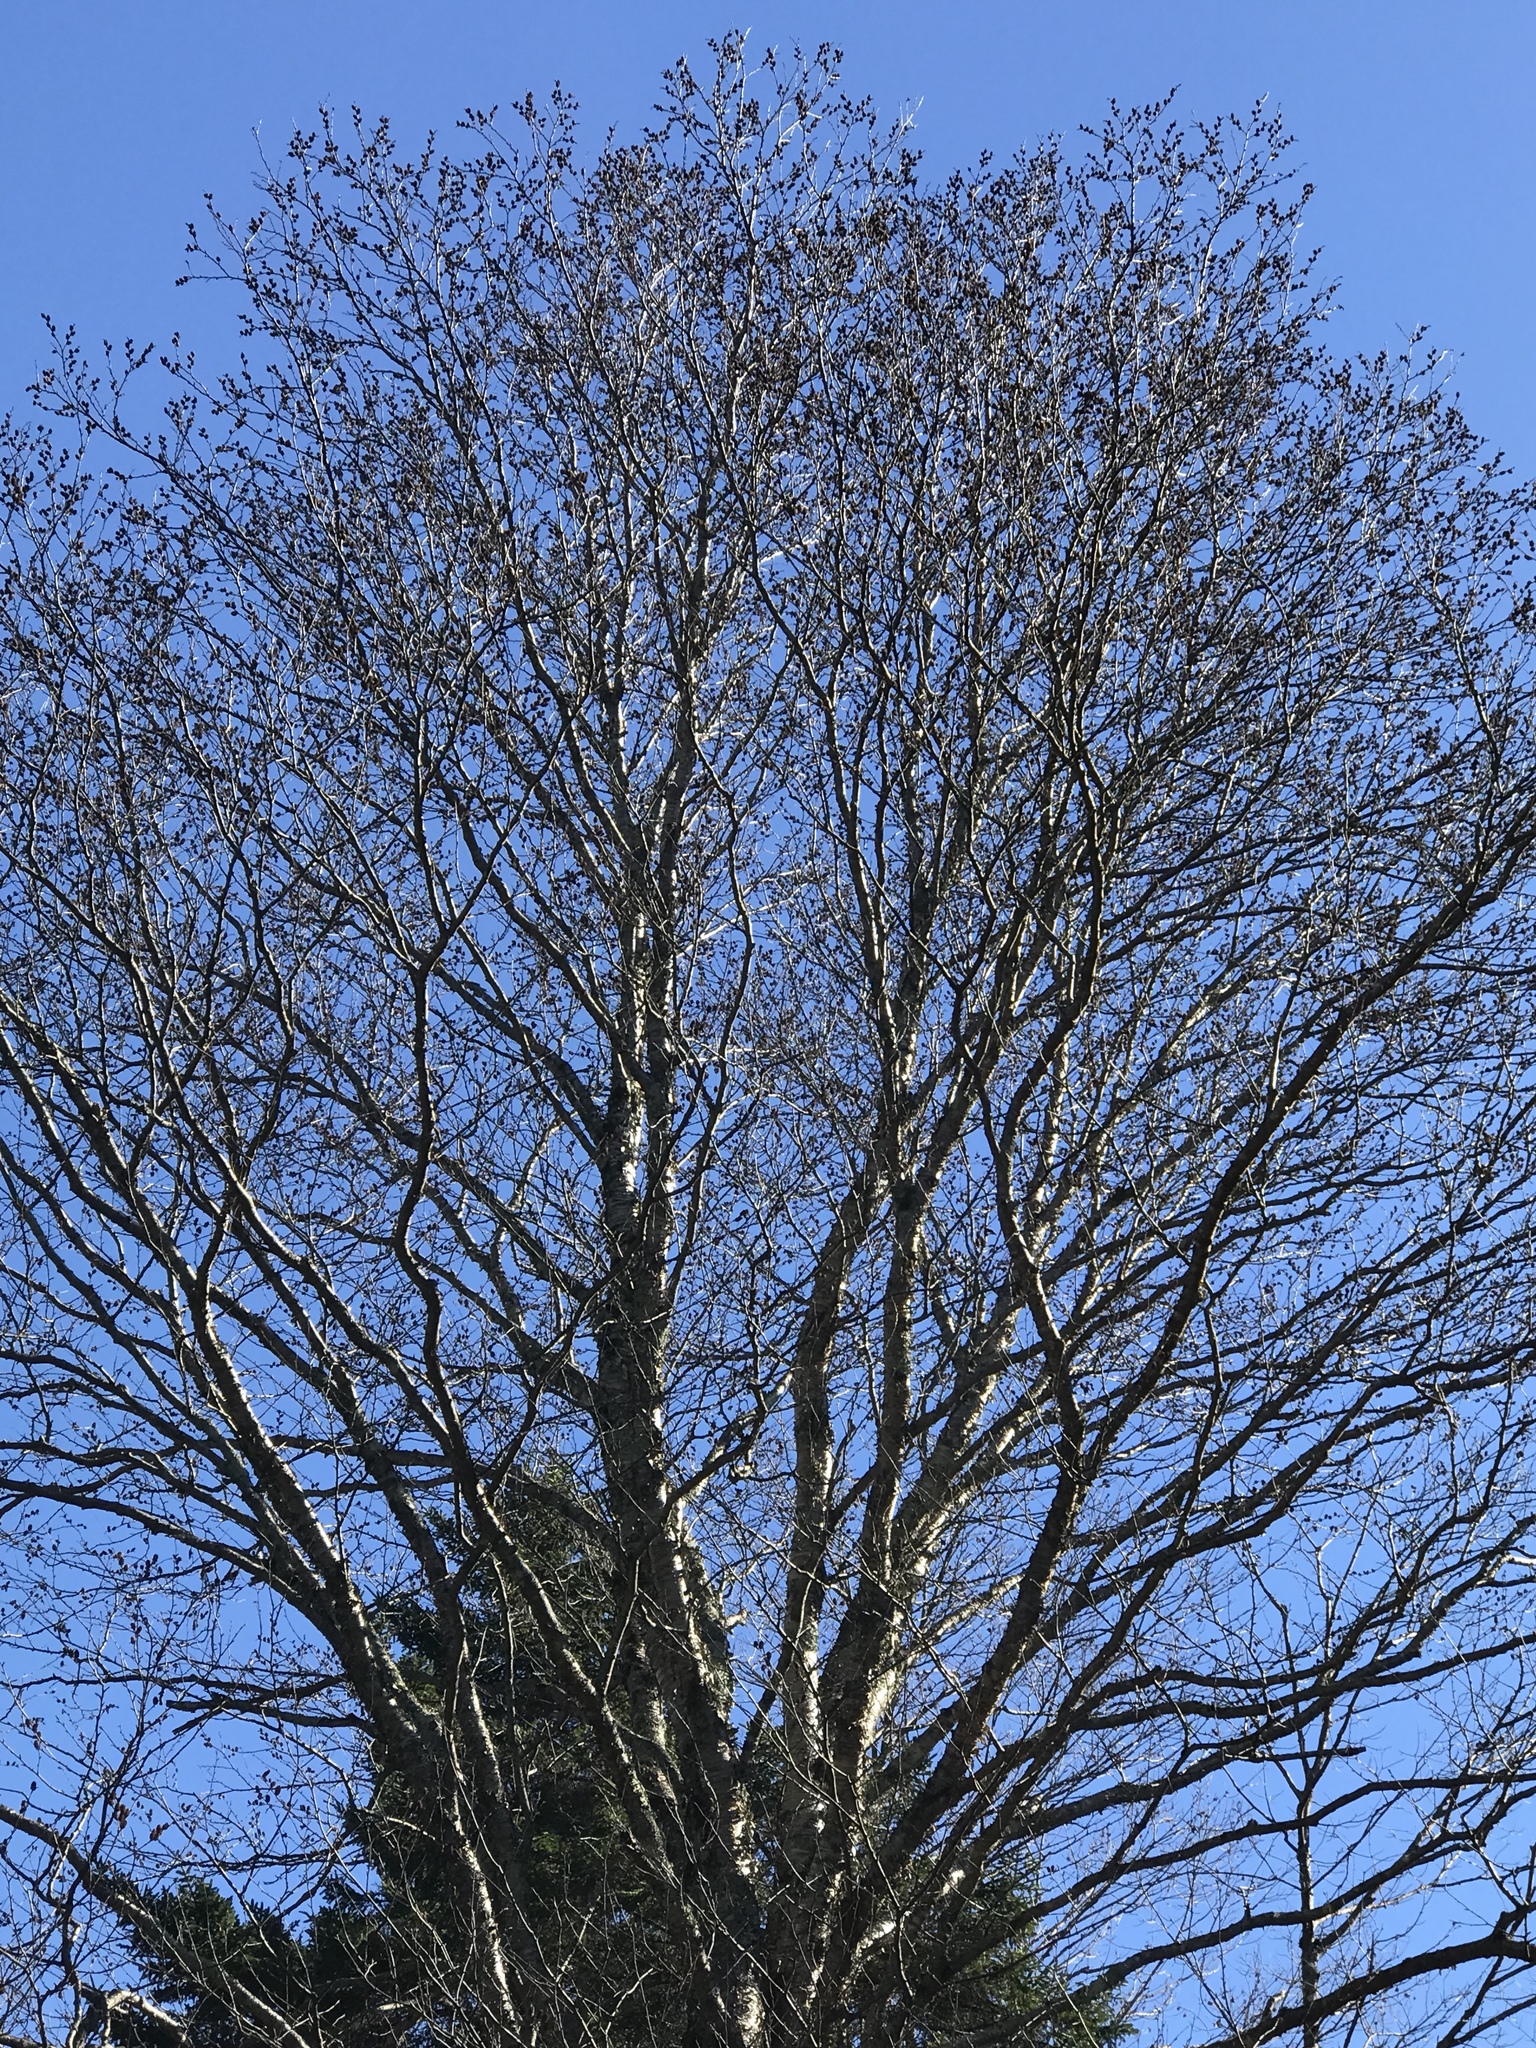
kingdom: Plantae
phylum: Tracheophyta
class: Magnoliopsida
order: Fagales
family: Betulaceae
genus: Betula
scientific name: Betula alleghaniensis
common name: Yellow birch
